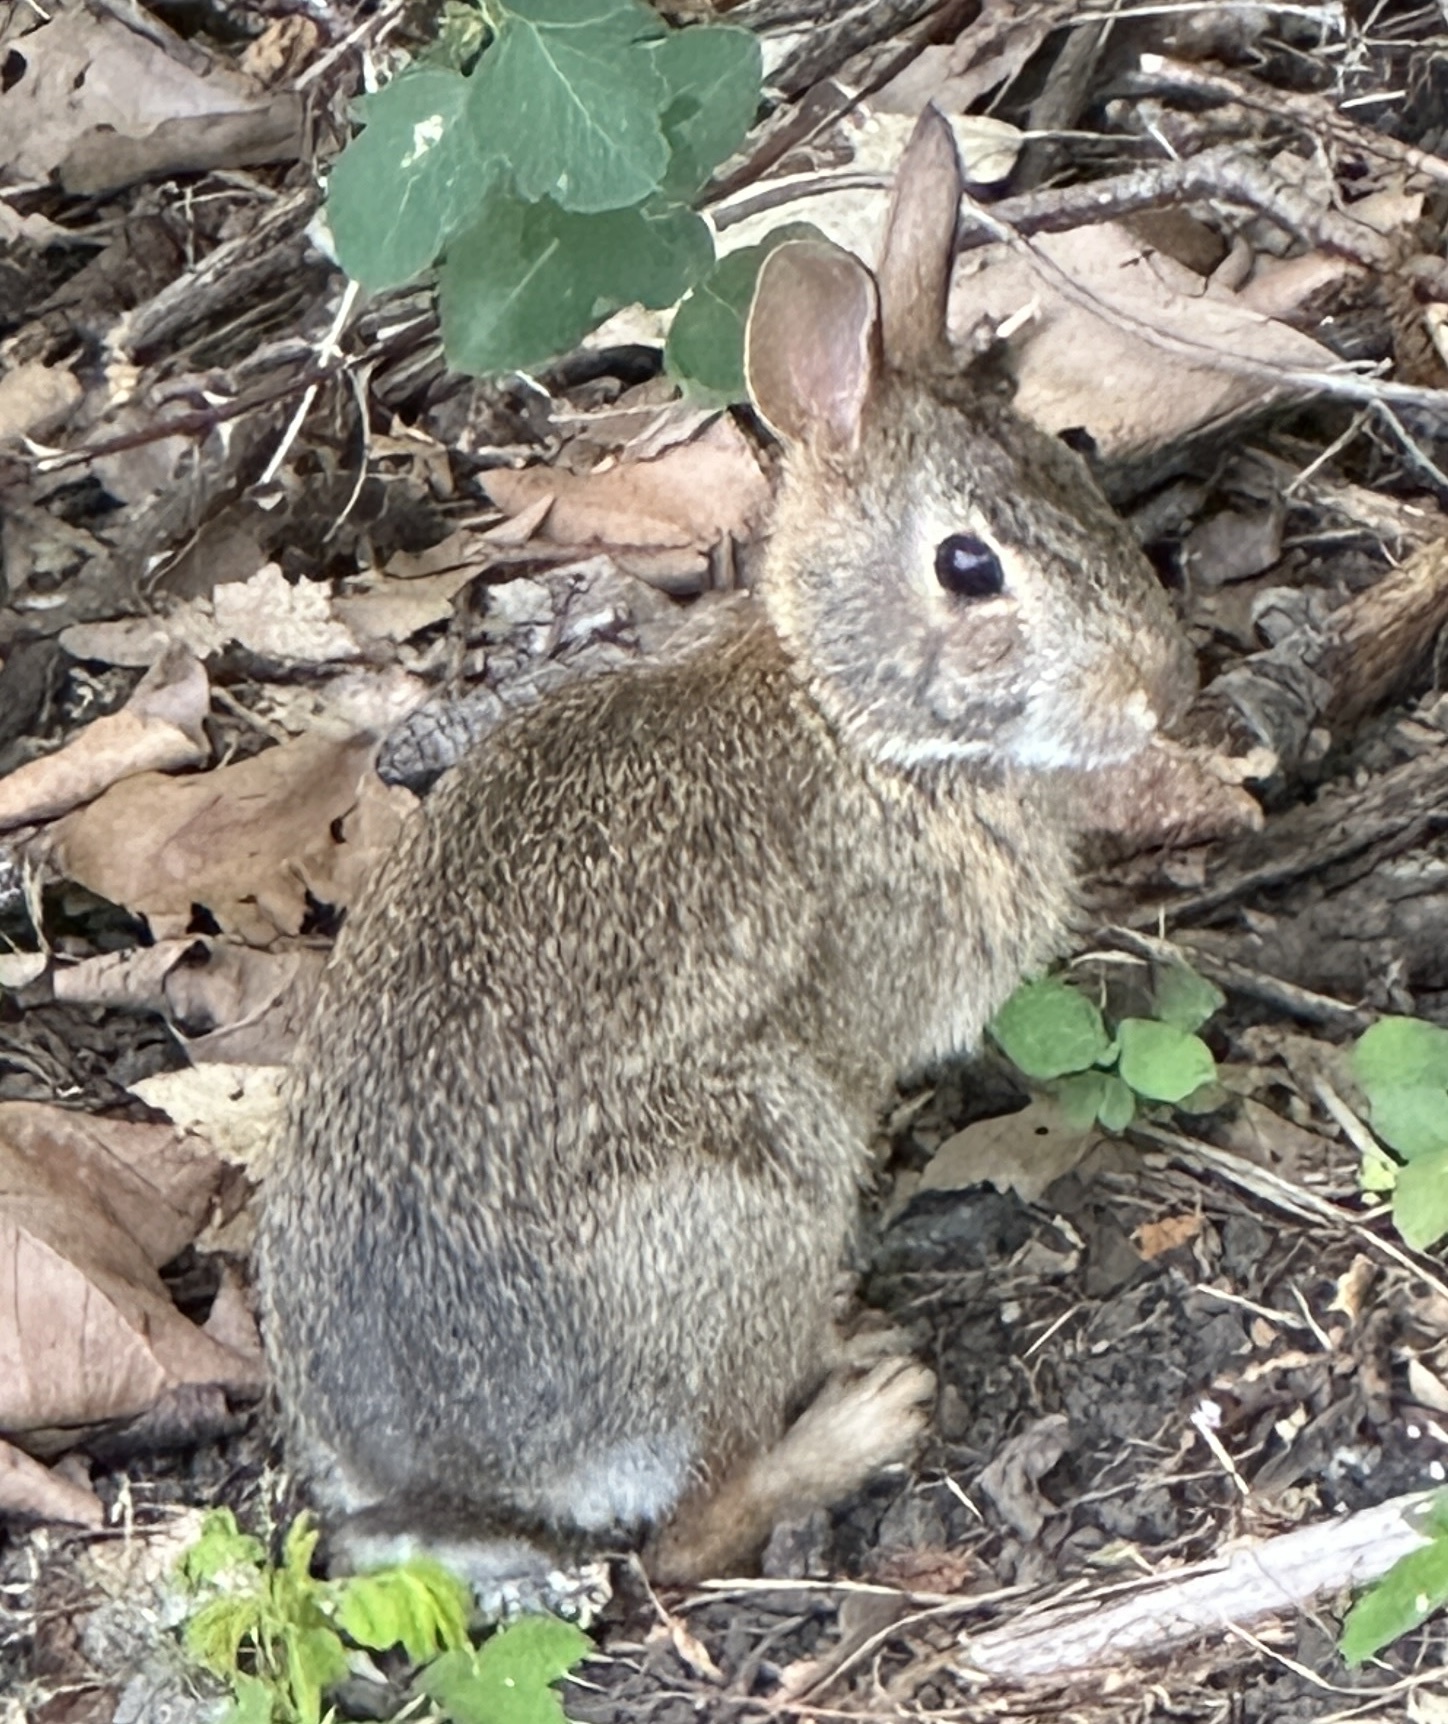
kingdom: Animalia
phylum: Chordata
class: Mammalia
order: Lagomorpha
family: Leporidae
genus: Sylvilagus
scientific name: Sylvilagus floridanus
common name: Eastern cottontail
